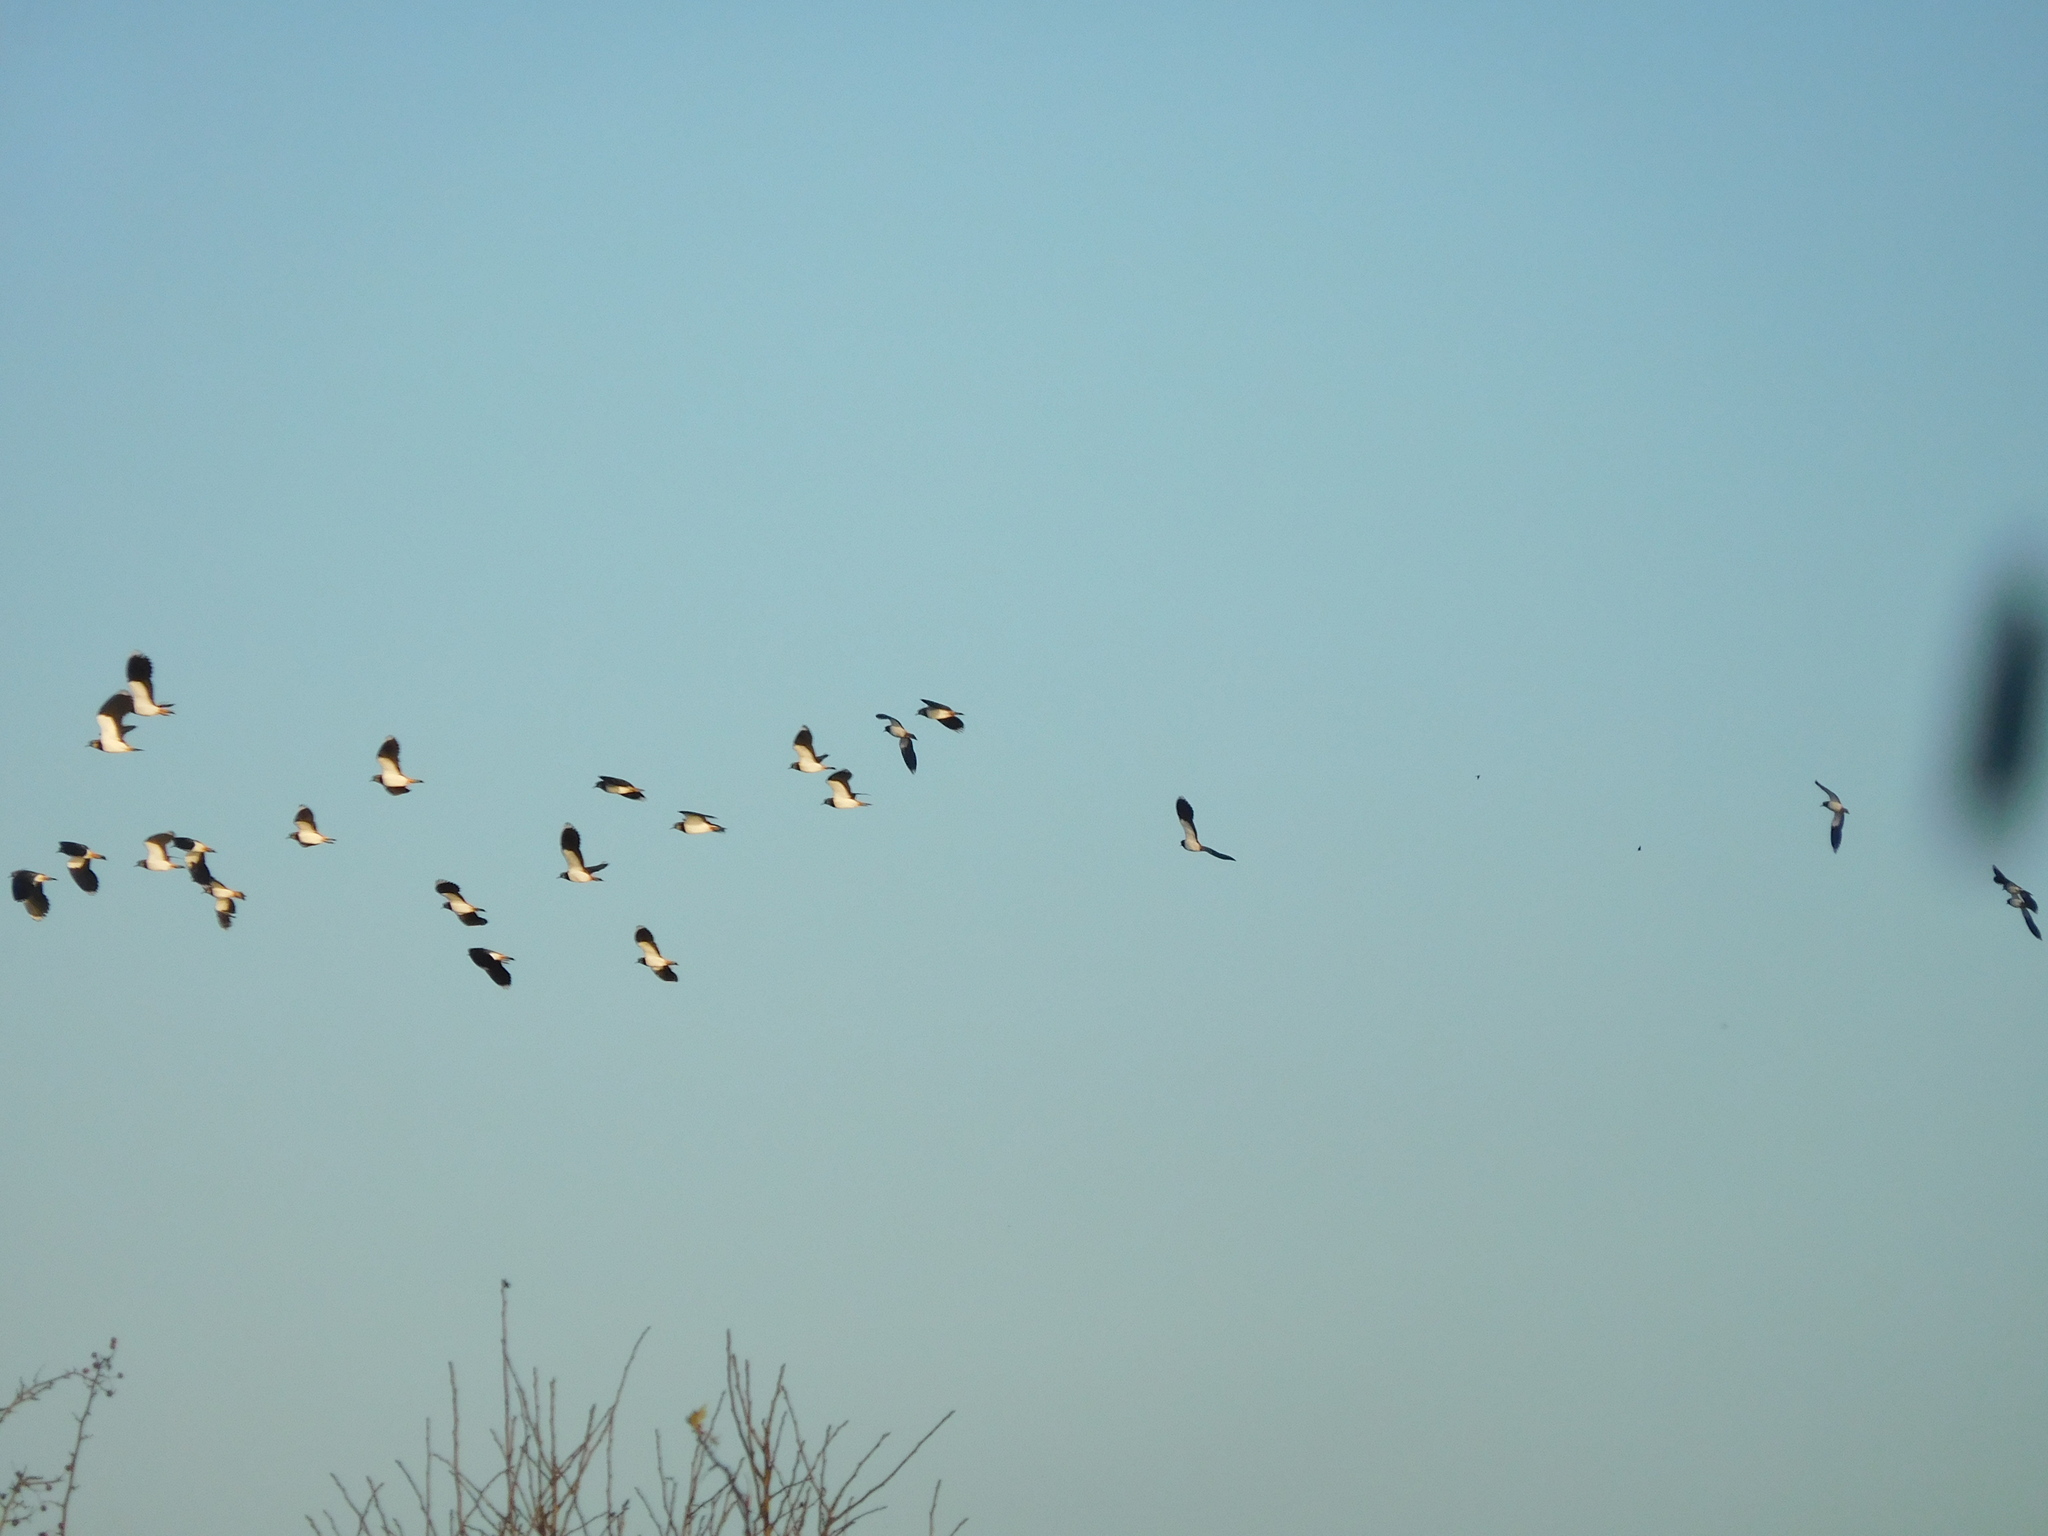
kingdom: Animalia
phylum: Chordata
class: Aves
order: Charadriiformes
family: Charadriidae
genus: Vanellus
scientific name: Vanellus vanellus
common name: Northern lapwing
